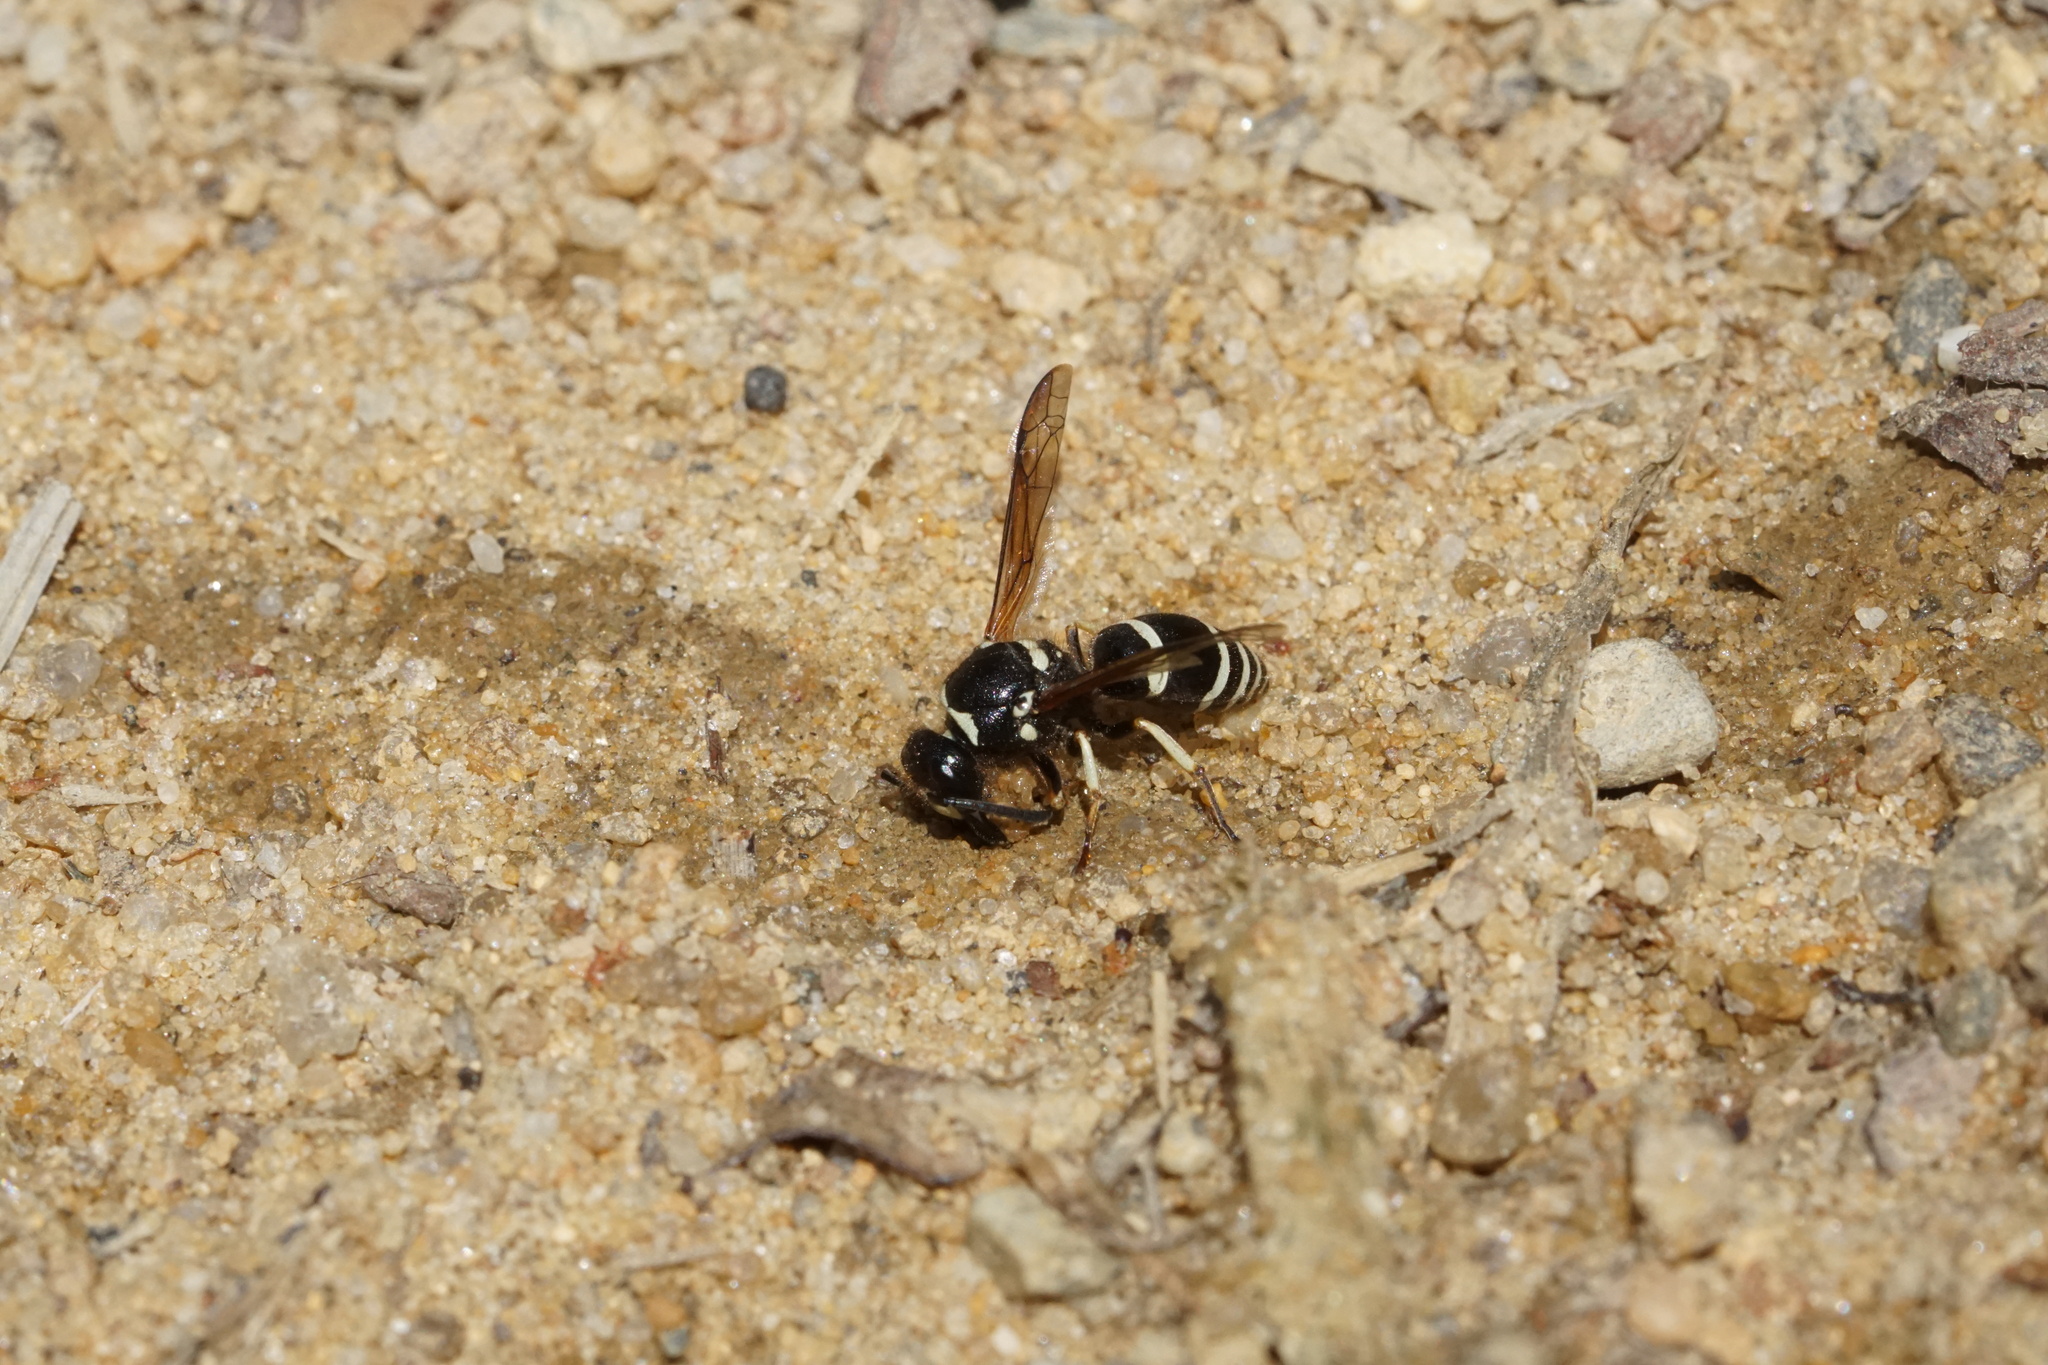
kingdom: Animalia
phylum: Arthropoda
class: Insecta
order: Hymenoptera
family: Vespidae
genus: Ancistrocerus
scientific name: Ancistrocerus waldenii
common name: Walden’s potter wasp
